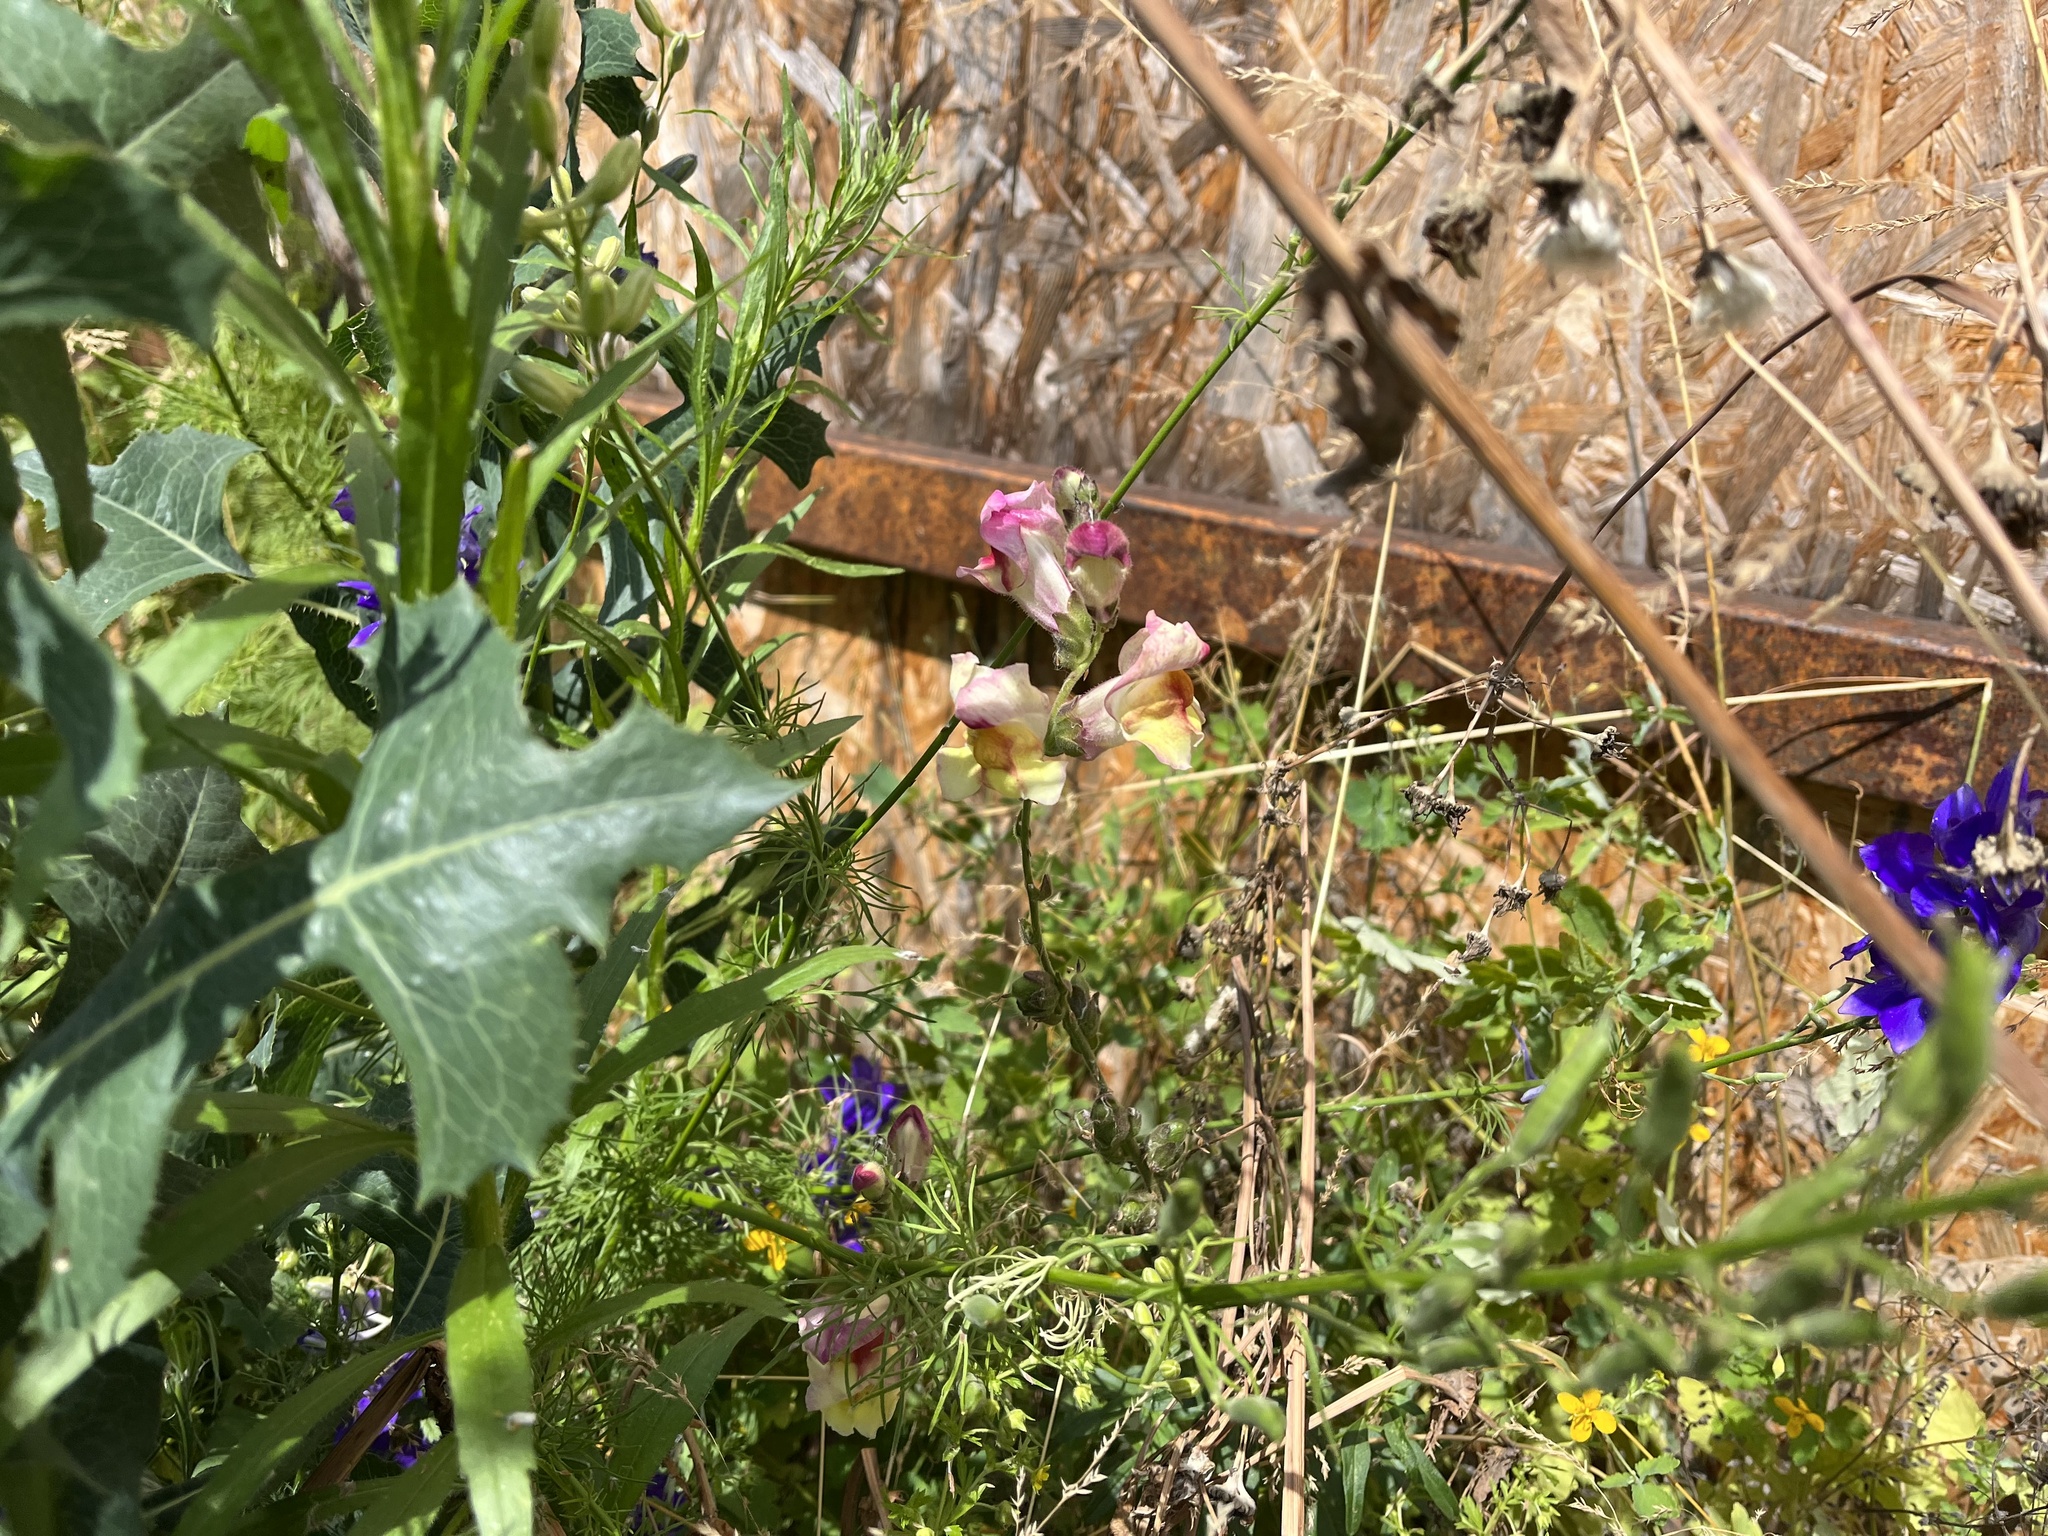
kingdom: Plantae
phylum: Tracheophyta
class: Magnoliopsida
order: Lamiales
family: Plantaginaceae
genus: Antirrhinum
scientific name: Antirrhinum majus
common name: Snapdragon
